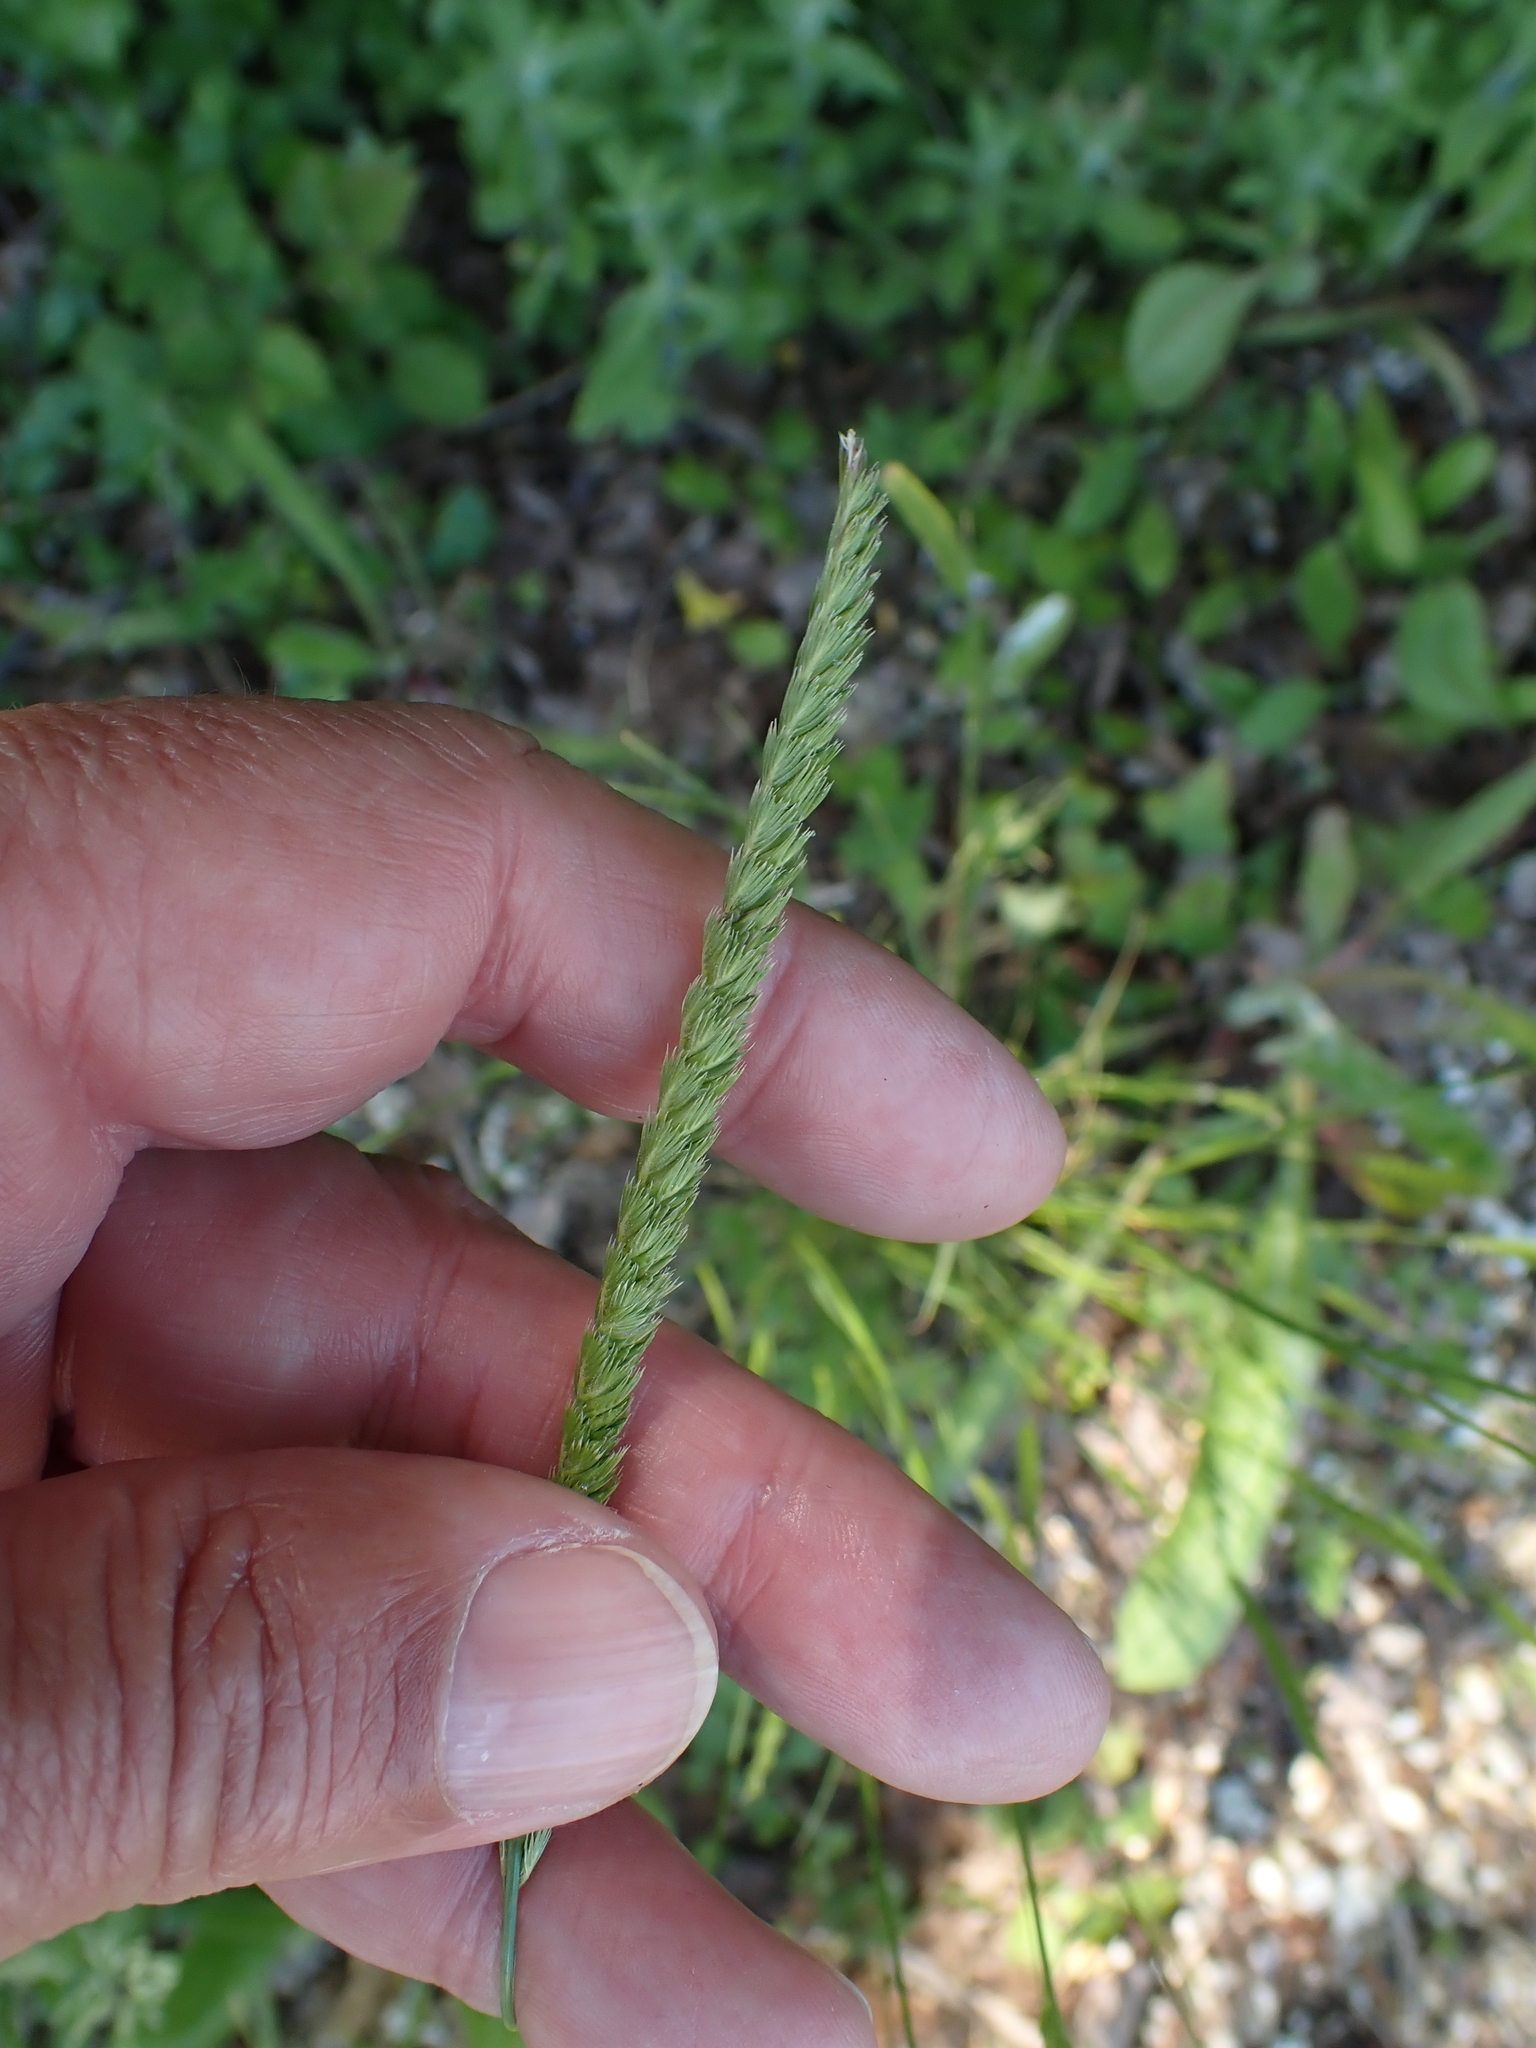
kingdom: Plantae
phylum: Tracheophyta
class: Liliopsida
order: Poales
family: Poaceae
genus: Cynosurus
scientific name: Cynosurus cristatus
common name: Crested dog's-tail
